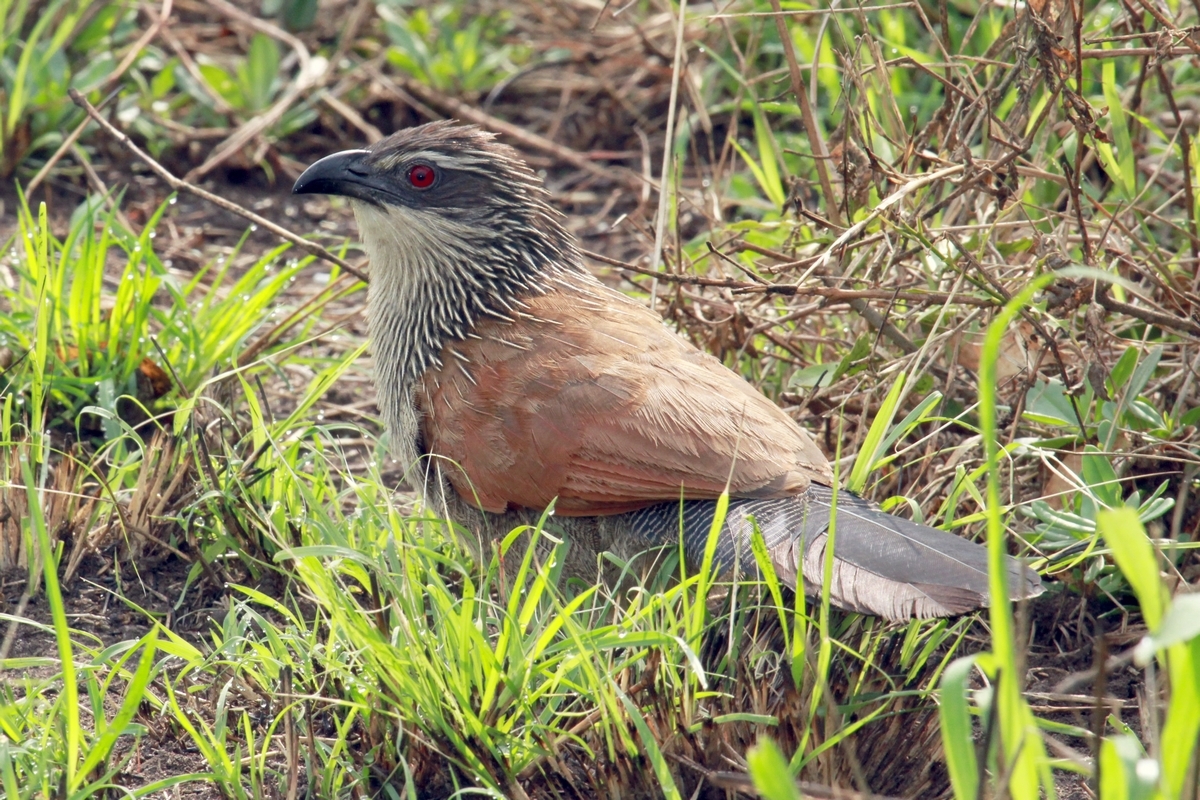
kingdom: Animalia
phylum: Chordata
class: Aves
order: Cuculiformes
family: Cuculidae
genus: Centropus
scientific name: Centropus superciliosus
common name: White-browed coucal
